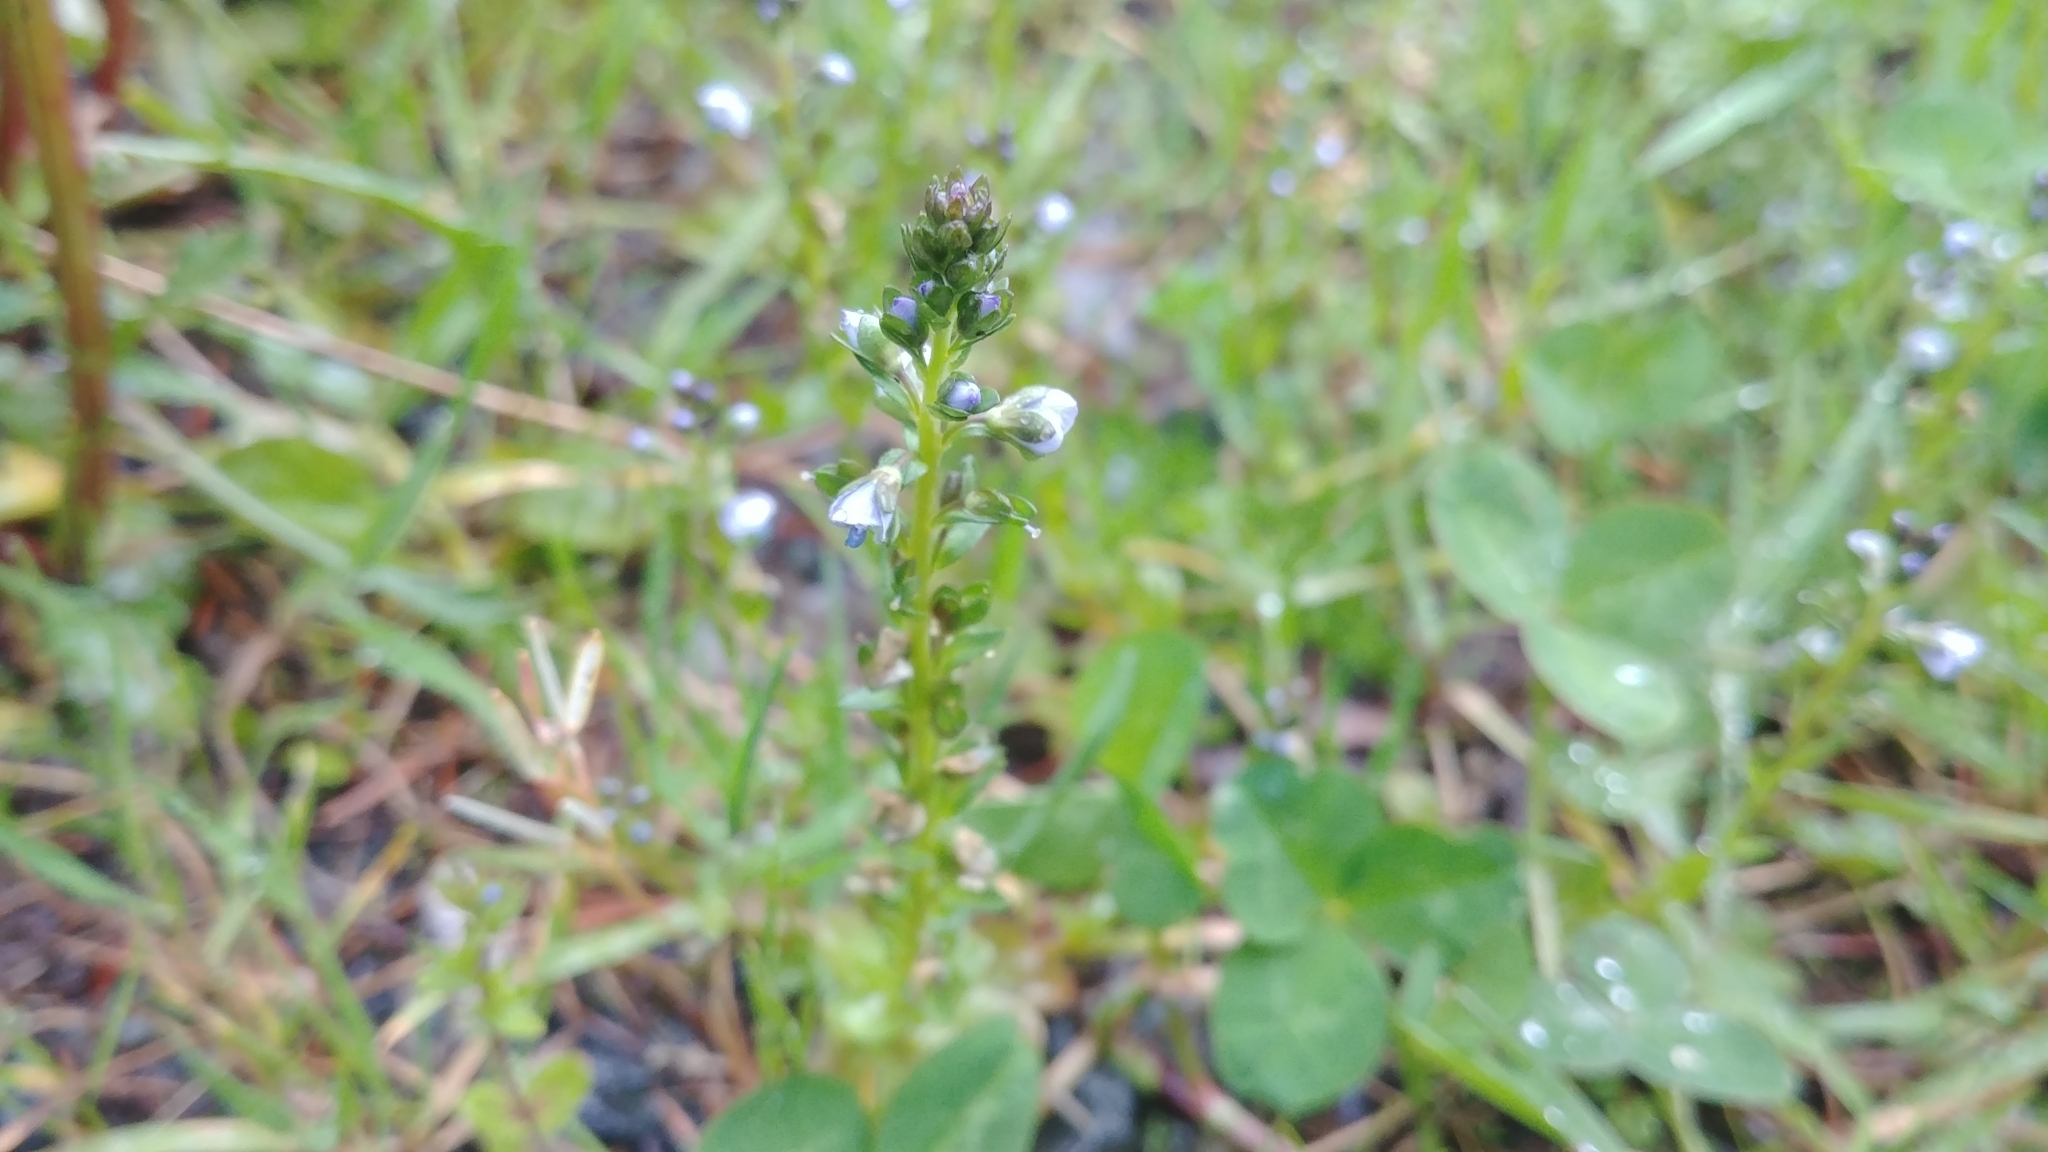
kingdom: Plantae
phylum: Tracheophyta
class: Magnoliopsida
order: Lamiales
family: Plantaginaceae
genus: Veronica
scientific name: Veronica serpyllifolia
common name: Thyme-leaved speedwell
